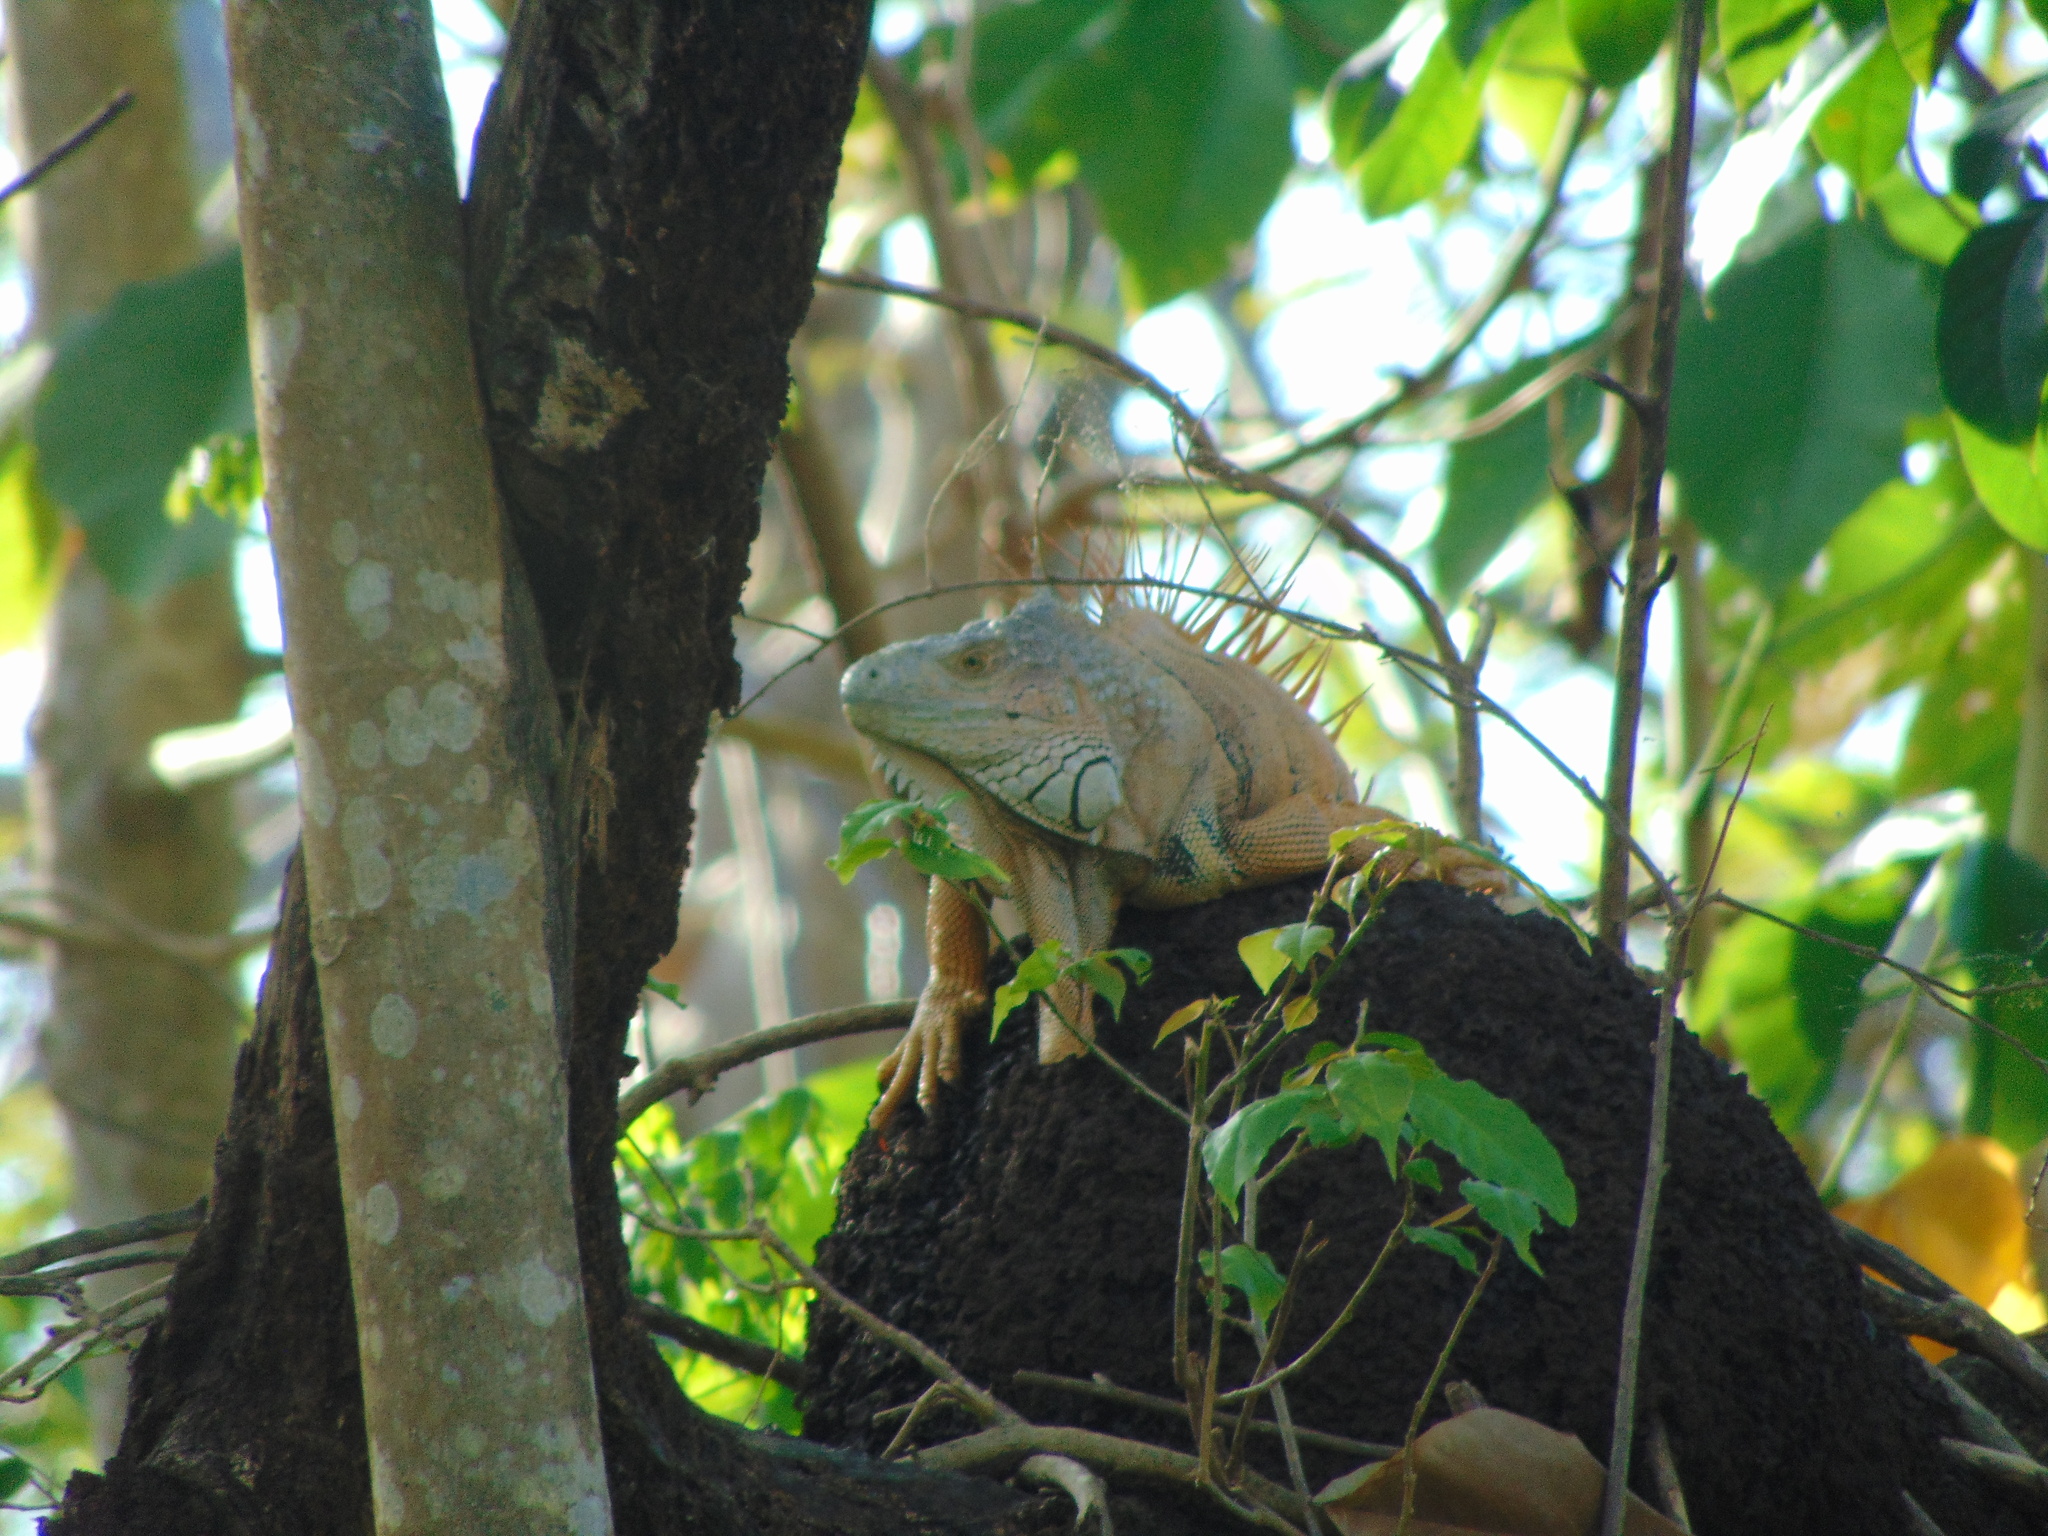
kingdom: Animalia
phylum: Chordata
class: Squamata
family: Iguanidae
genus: Iguana
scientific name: Iguana iguana
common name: Green iguana
